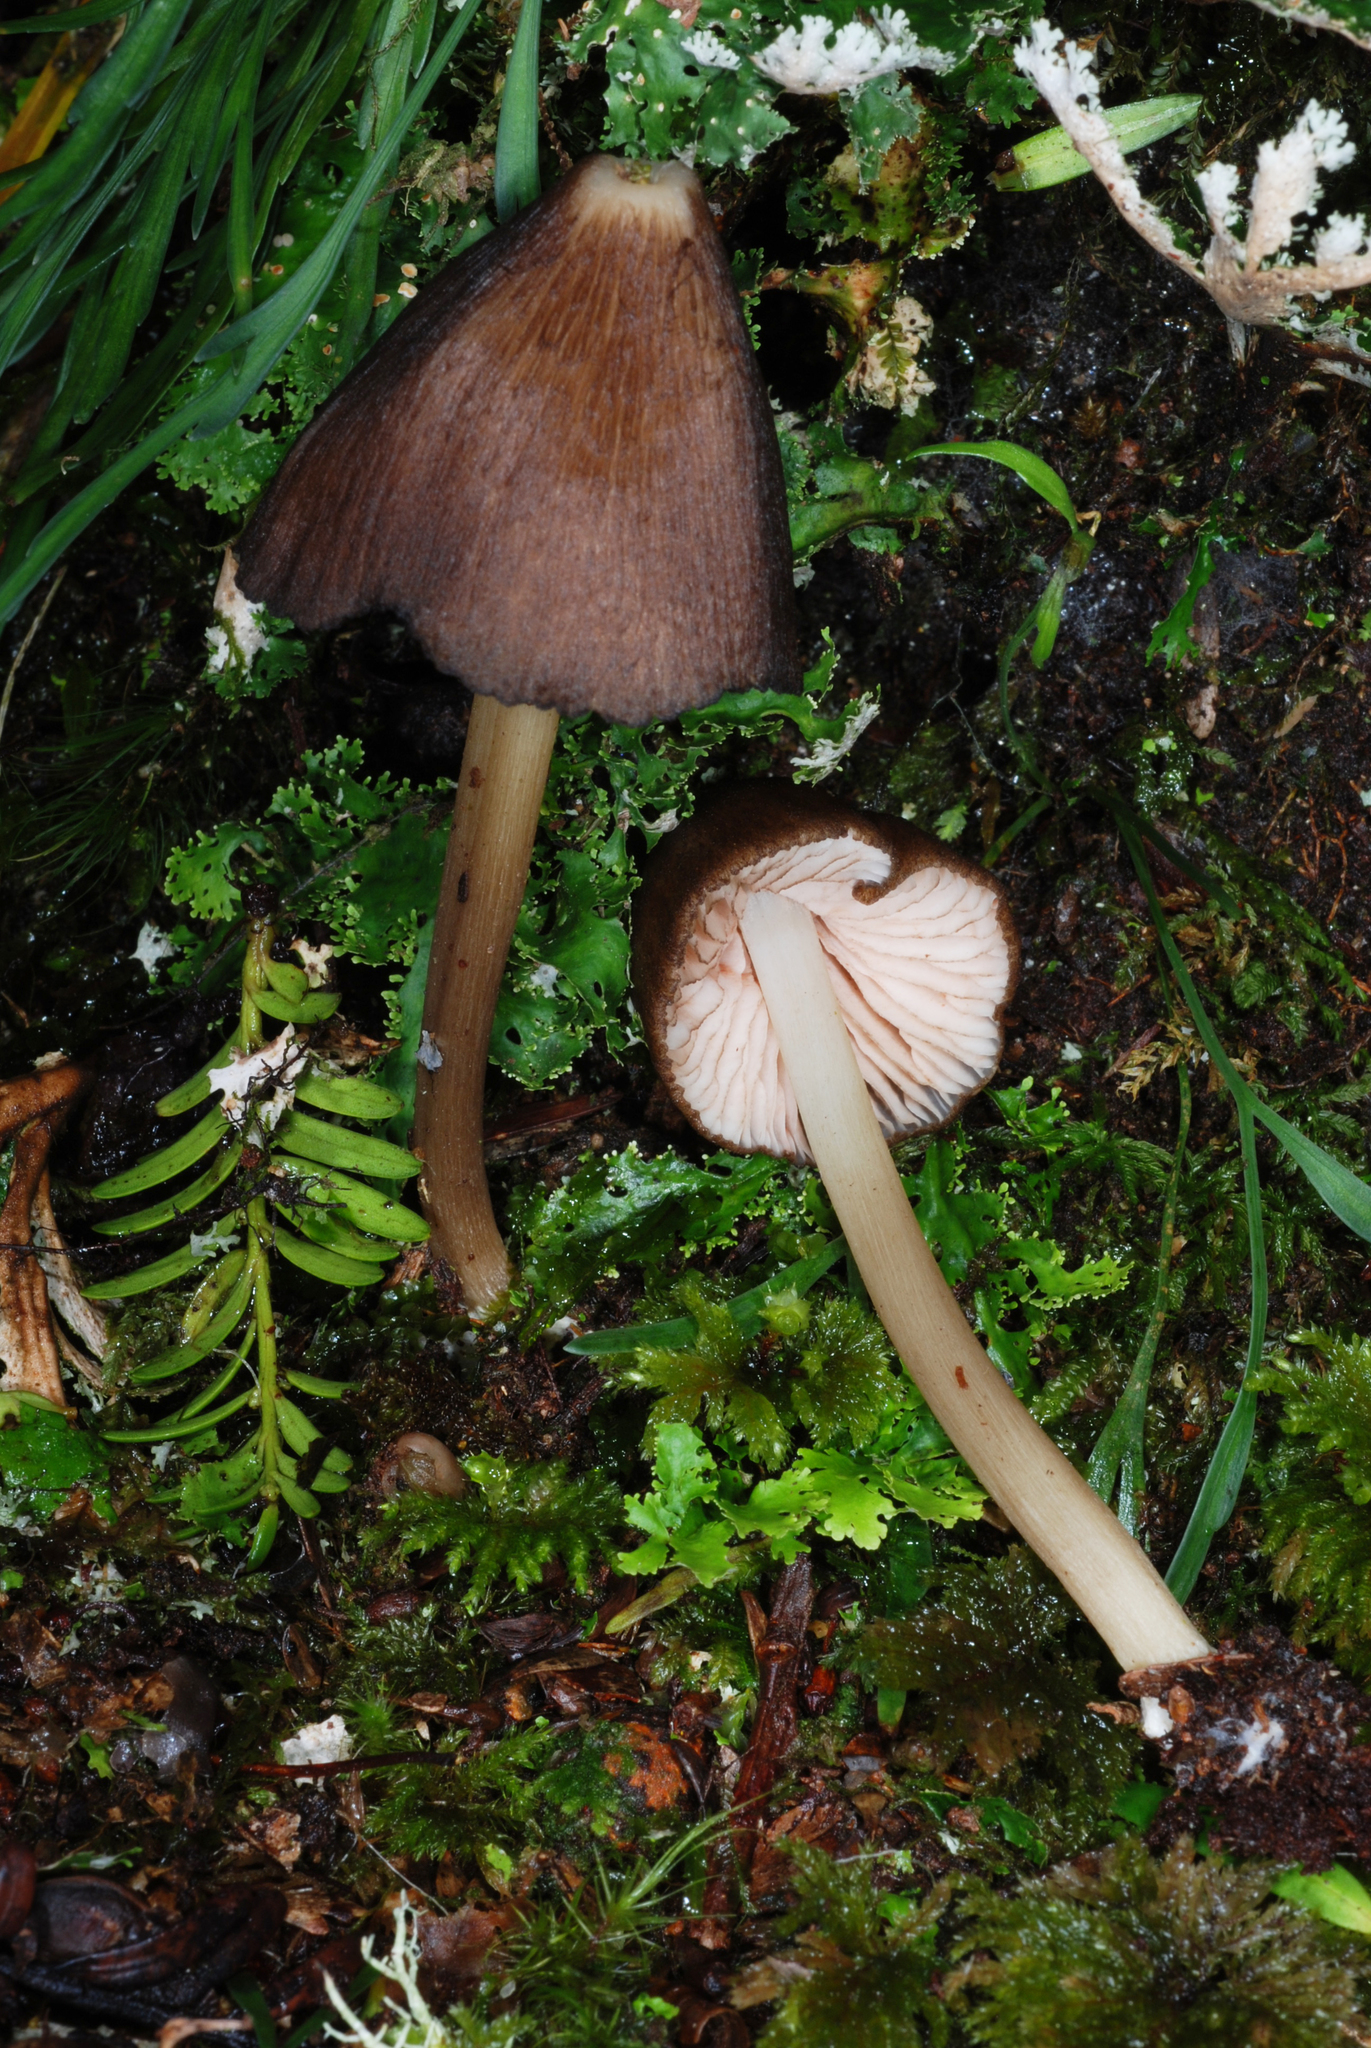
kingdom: Fungi
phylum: Basidiomycota
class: Agaricomycetes
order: Agaricales
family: Entolomataceae
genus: Entoloma
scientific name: Entoloma procerum
